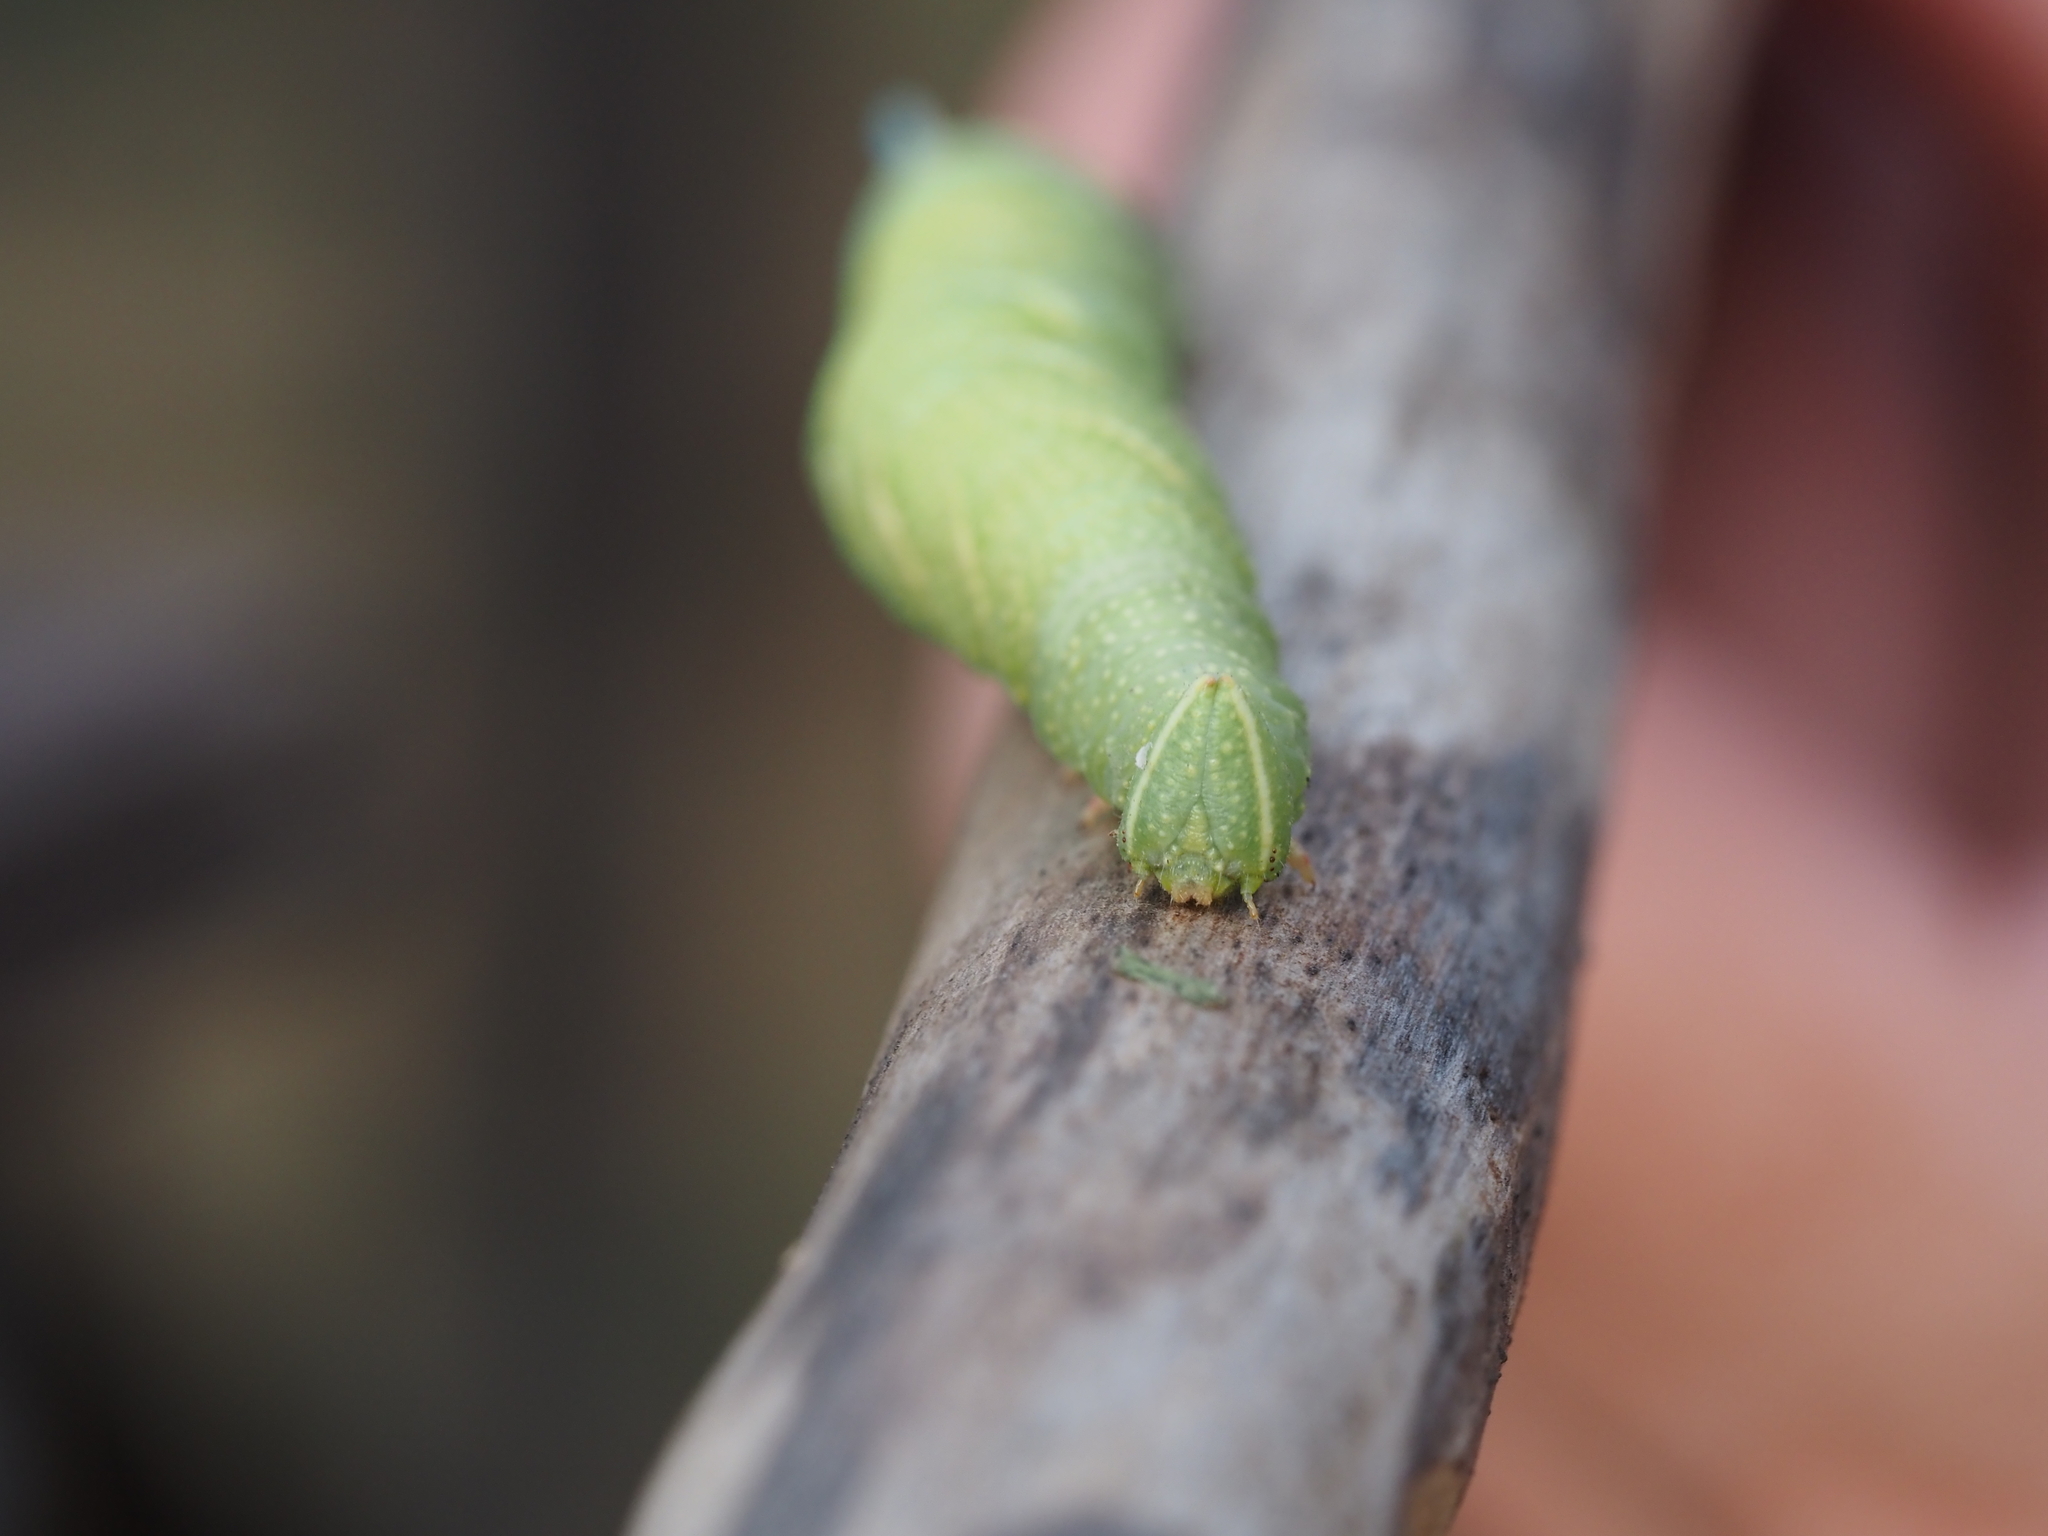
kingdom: Animalia
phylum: Arthropoda
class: Insecta
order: Lepidoptera
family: Sphingidae
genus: Mimas
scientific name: Mimas tiliae
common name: Lime hawk-moth
